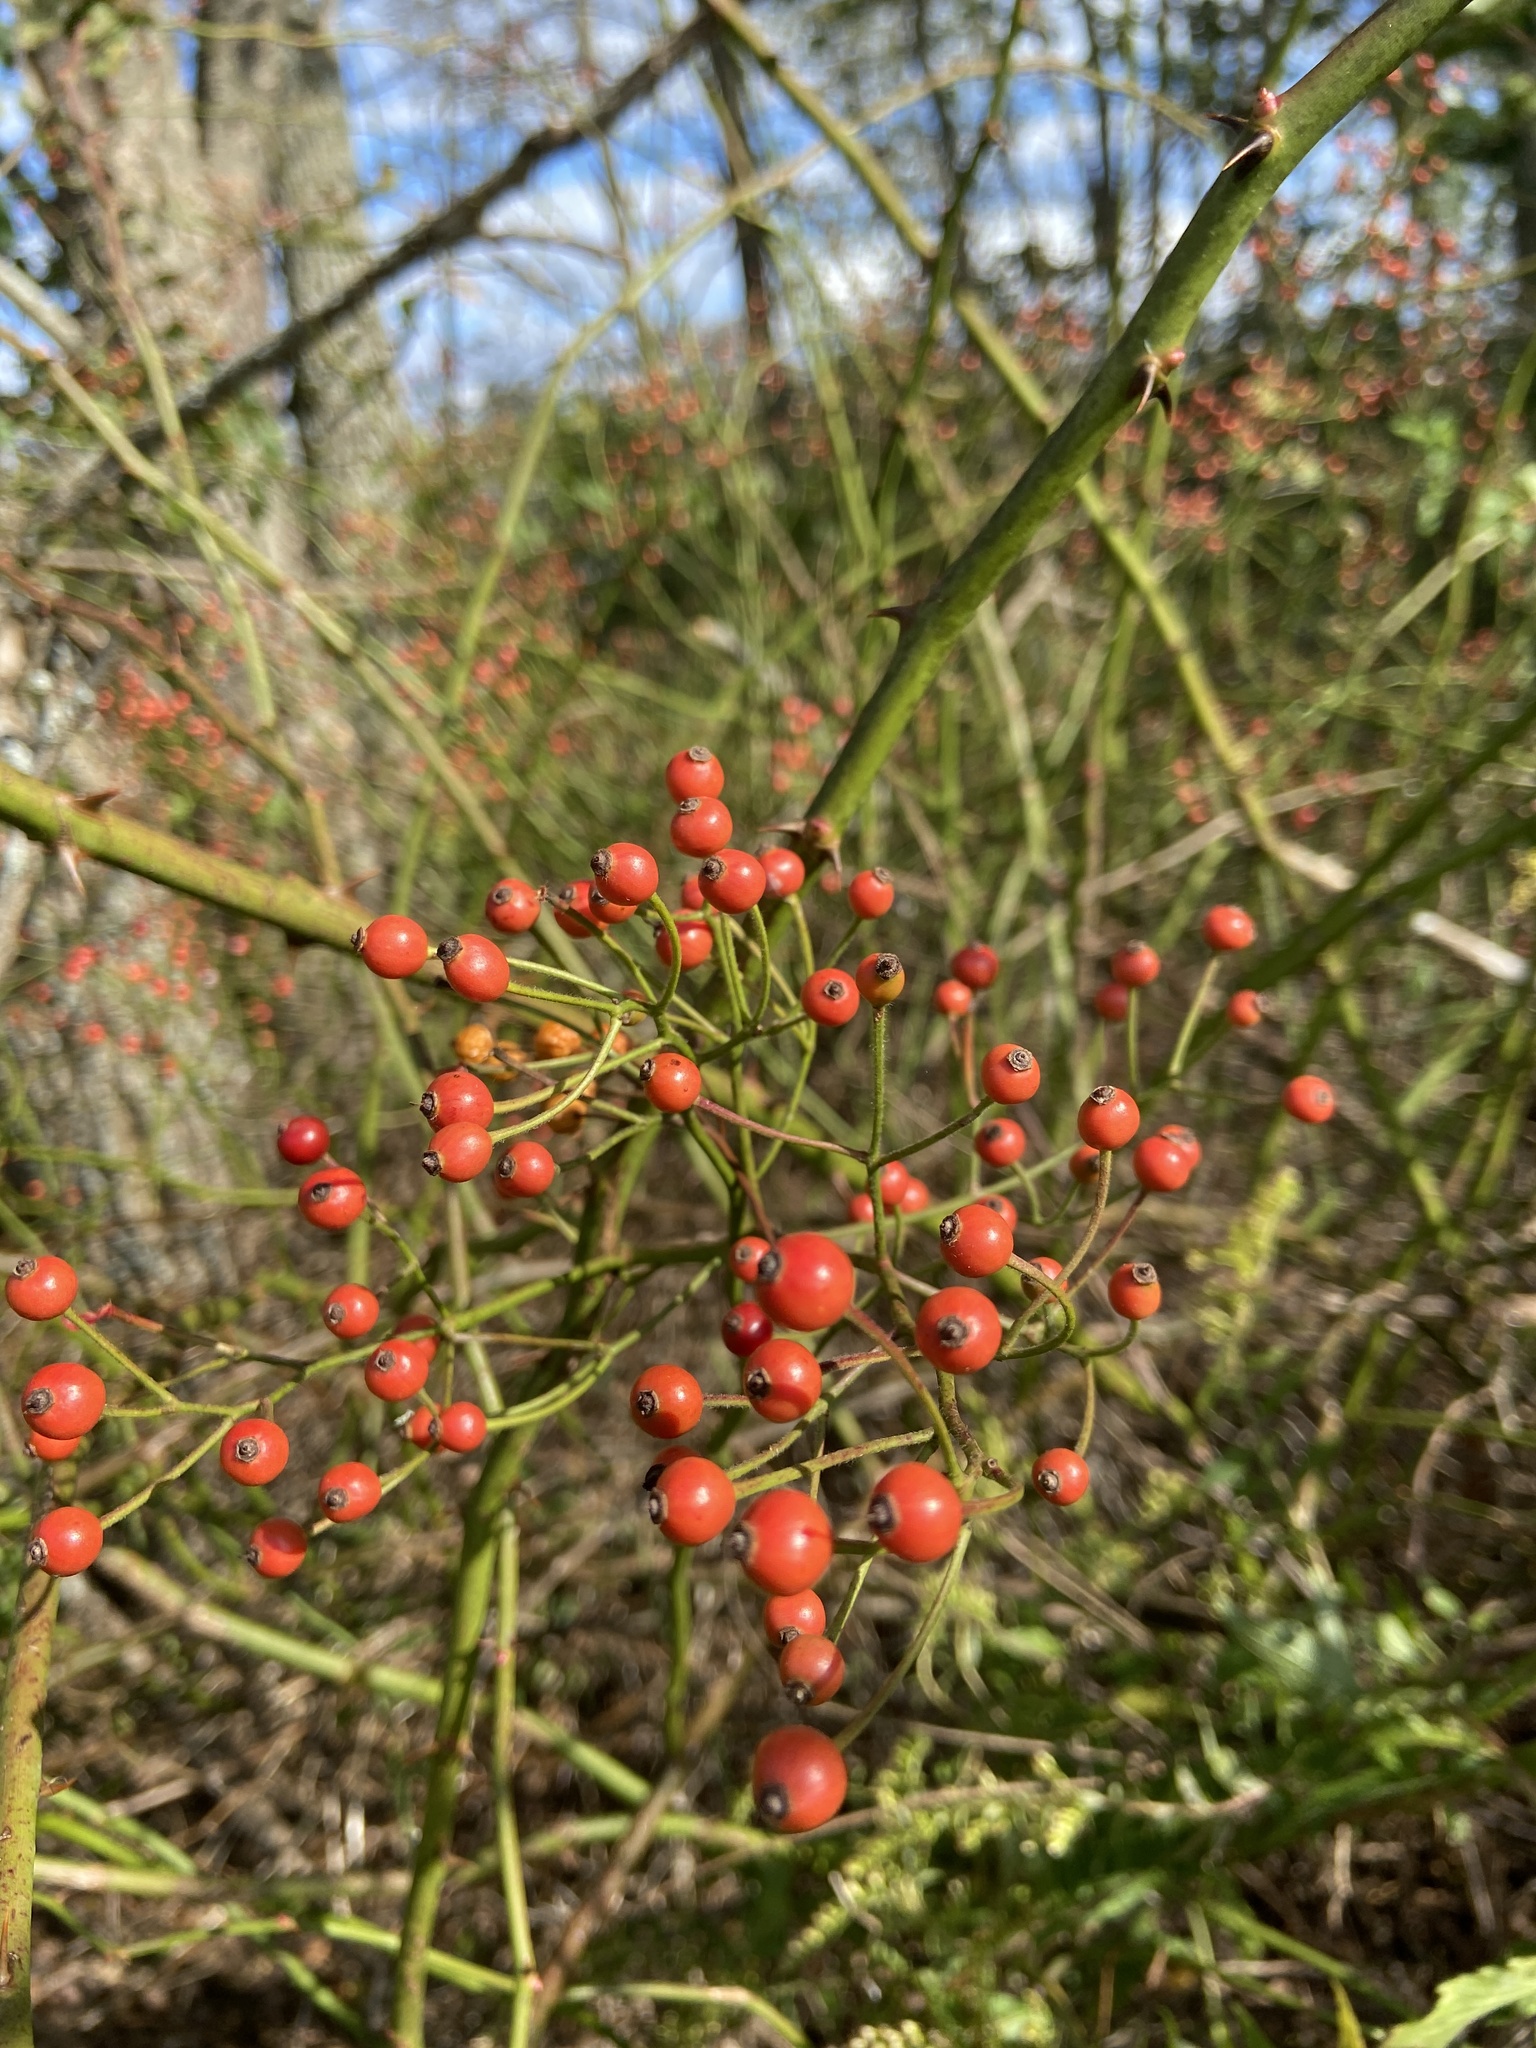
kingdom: Plantae
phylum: Tracheophyta
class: Magnoliopsida
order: Rosales
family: Rosaceae
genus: Rosa
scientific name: Rosa multiflora
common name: Multiflora rose
